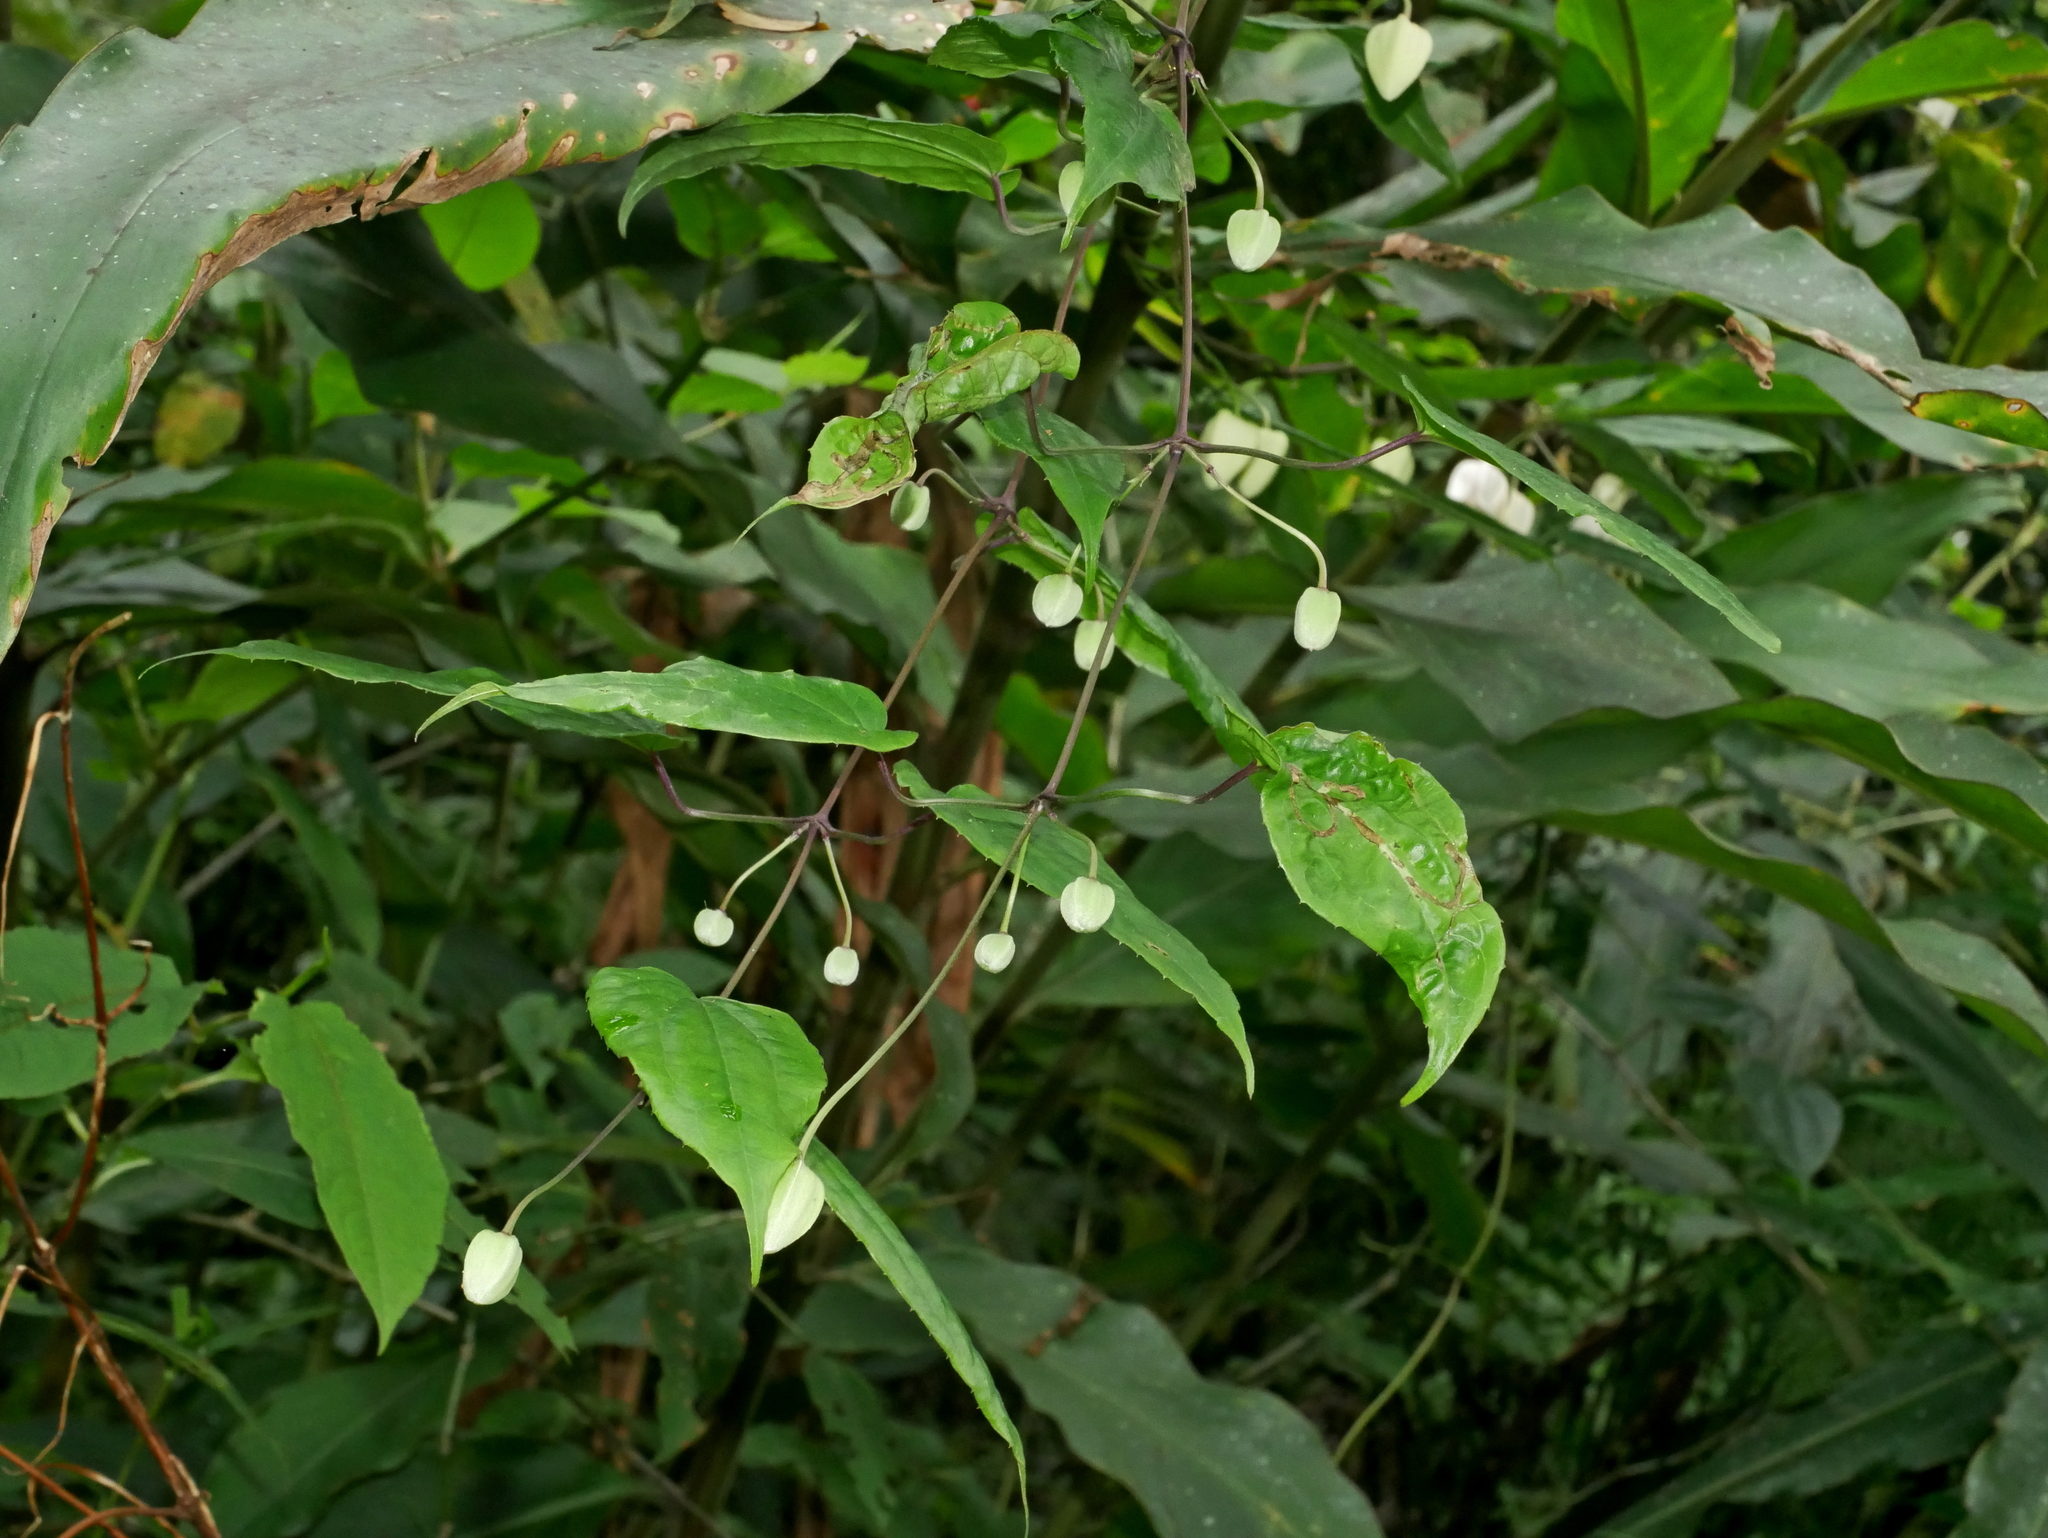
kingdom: Plantae
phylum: Tracheophyta
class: Magnoliopsida
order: Ranunculales
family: Ranunculaceae
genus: Clematis
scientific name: Clematis
